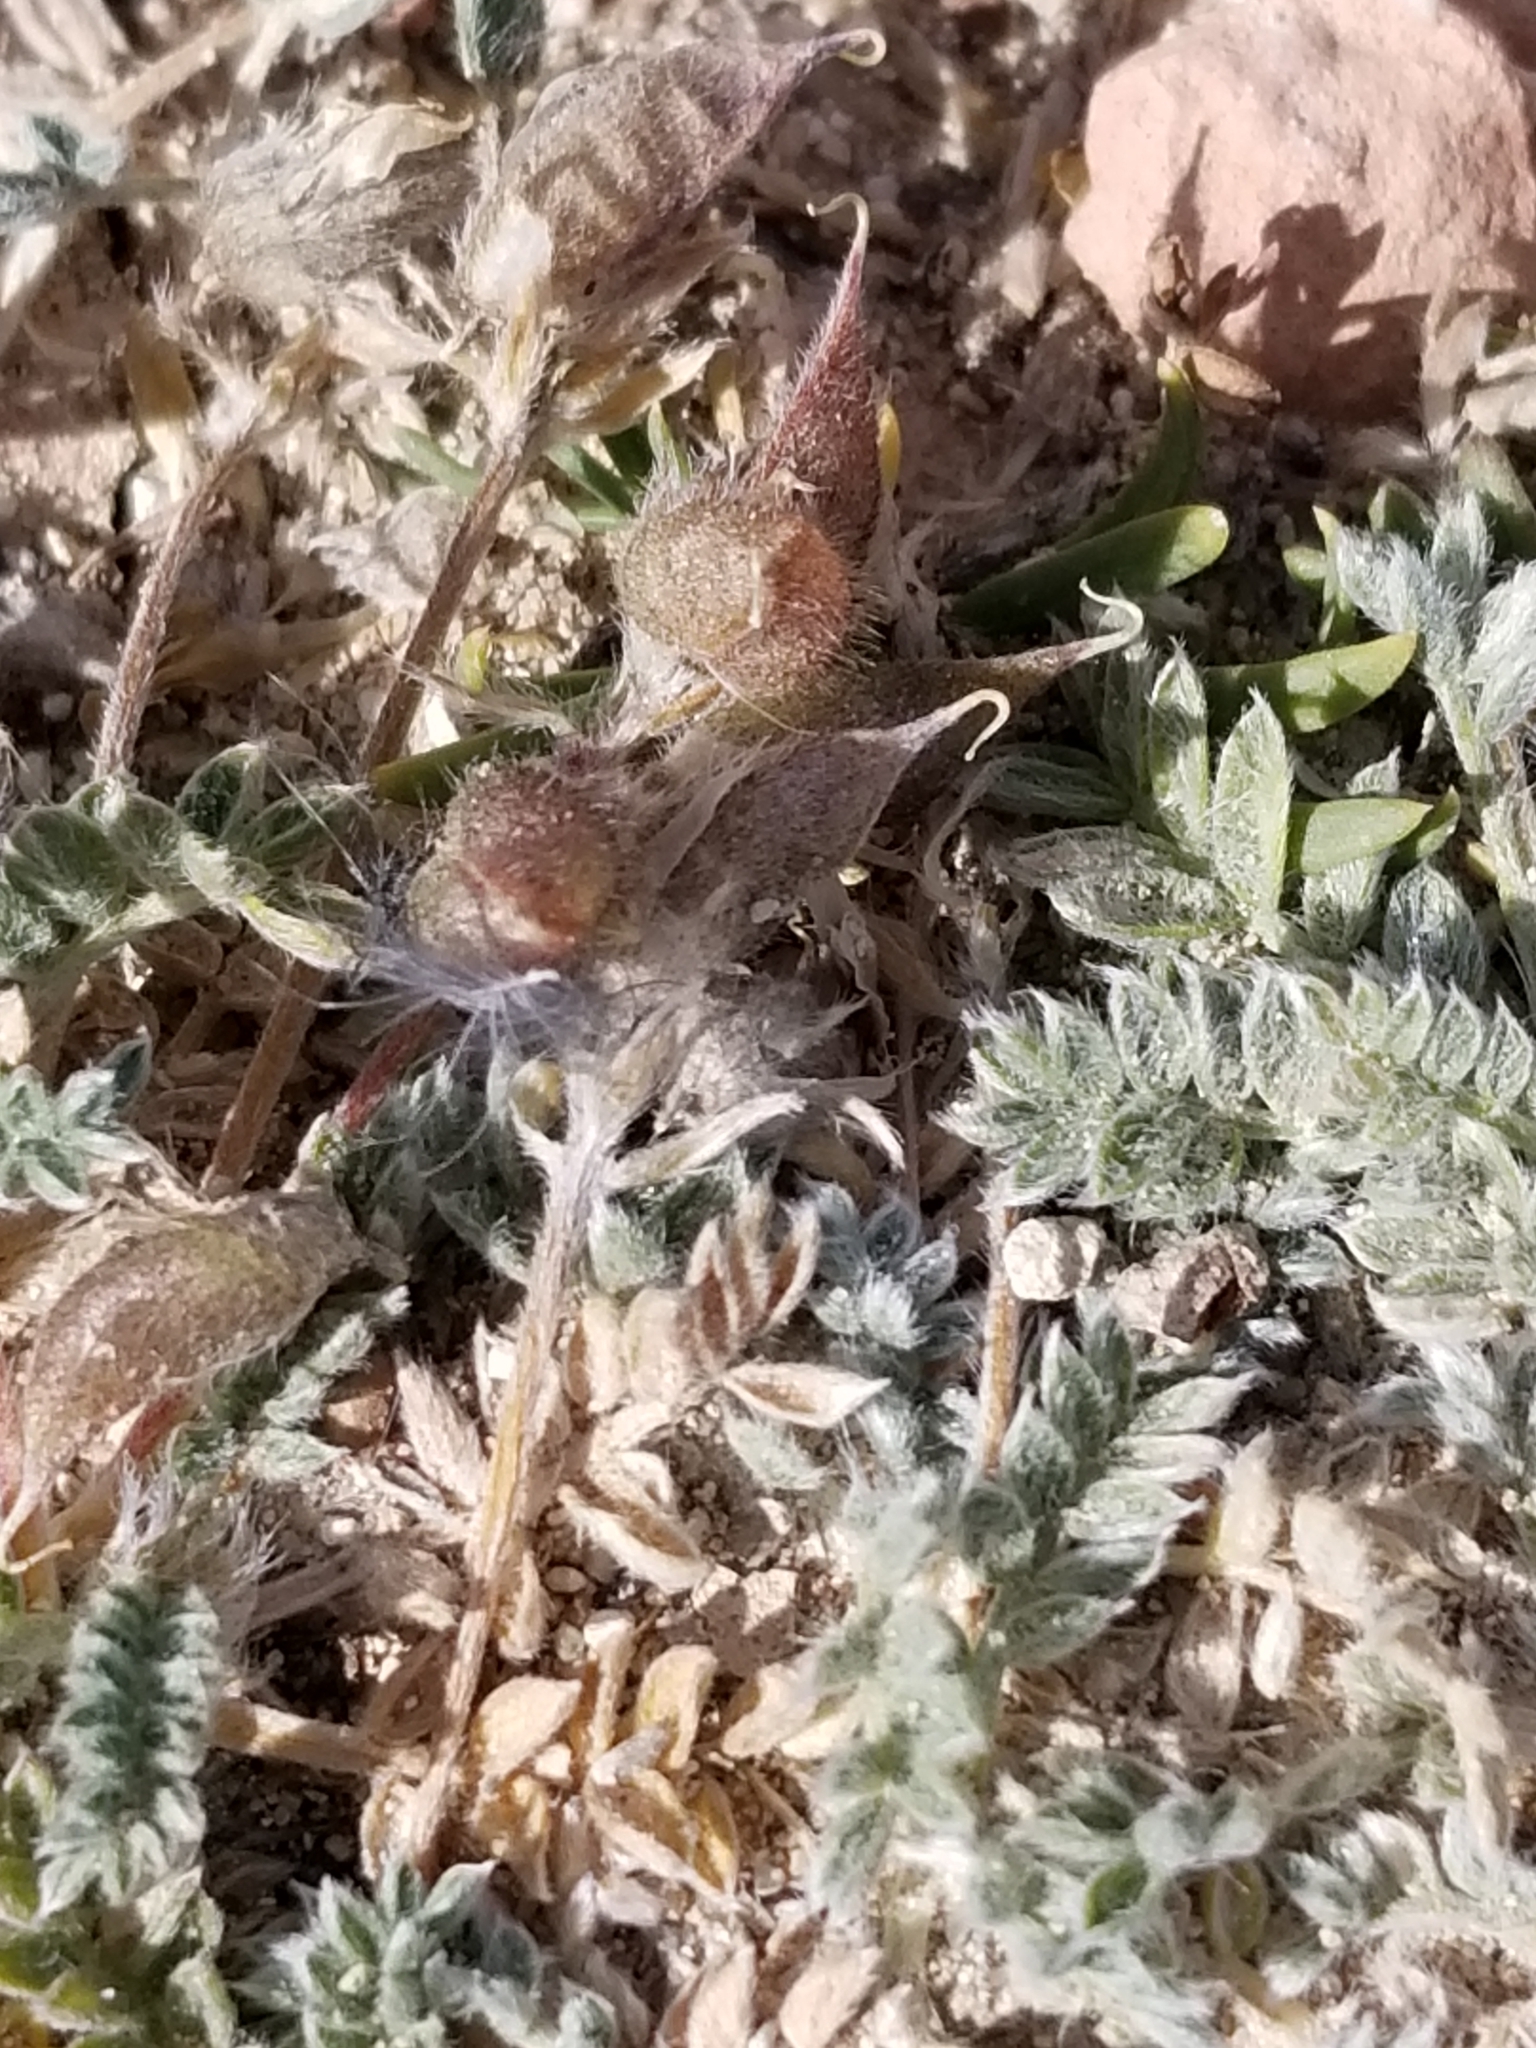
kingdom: Plantae
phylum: Tracheophyta
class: Magnoliopsida
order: Fabales
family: Fabaceae
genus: Oxytropis
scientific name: Oxytropis oreophila
